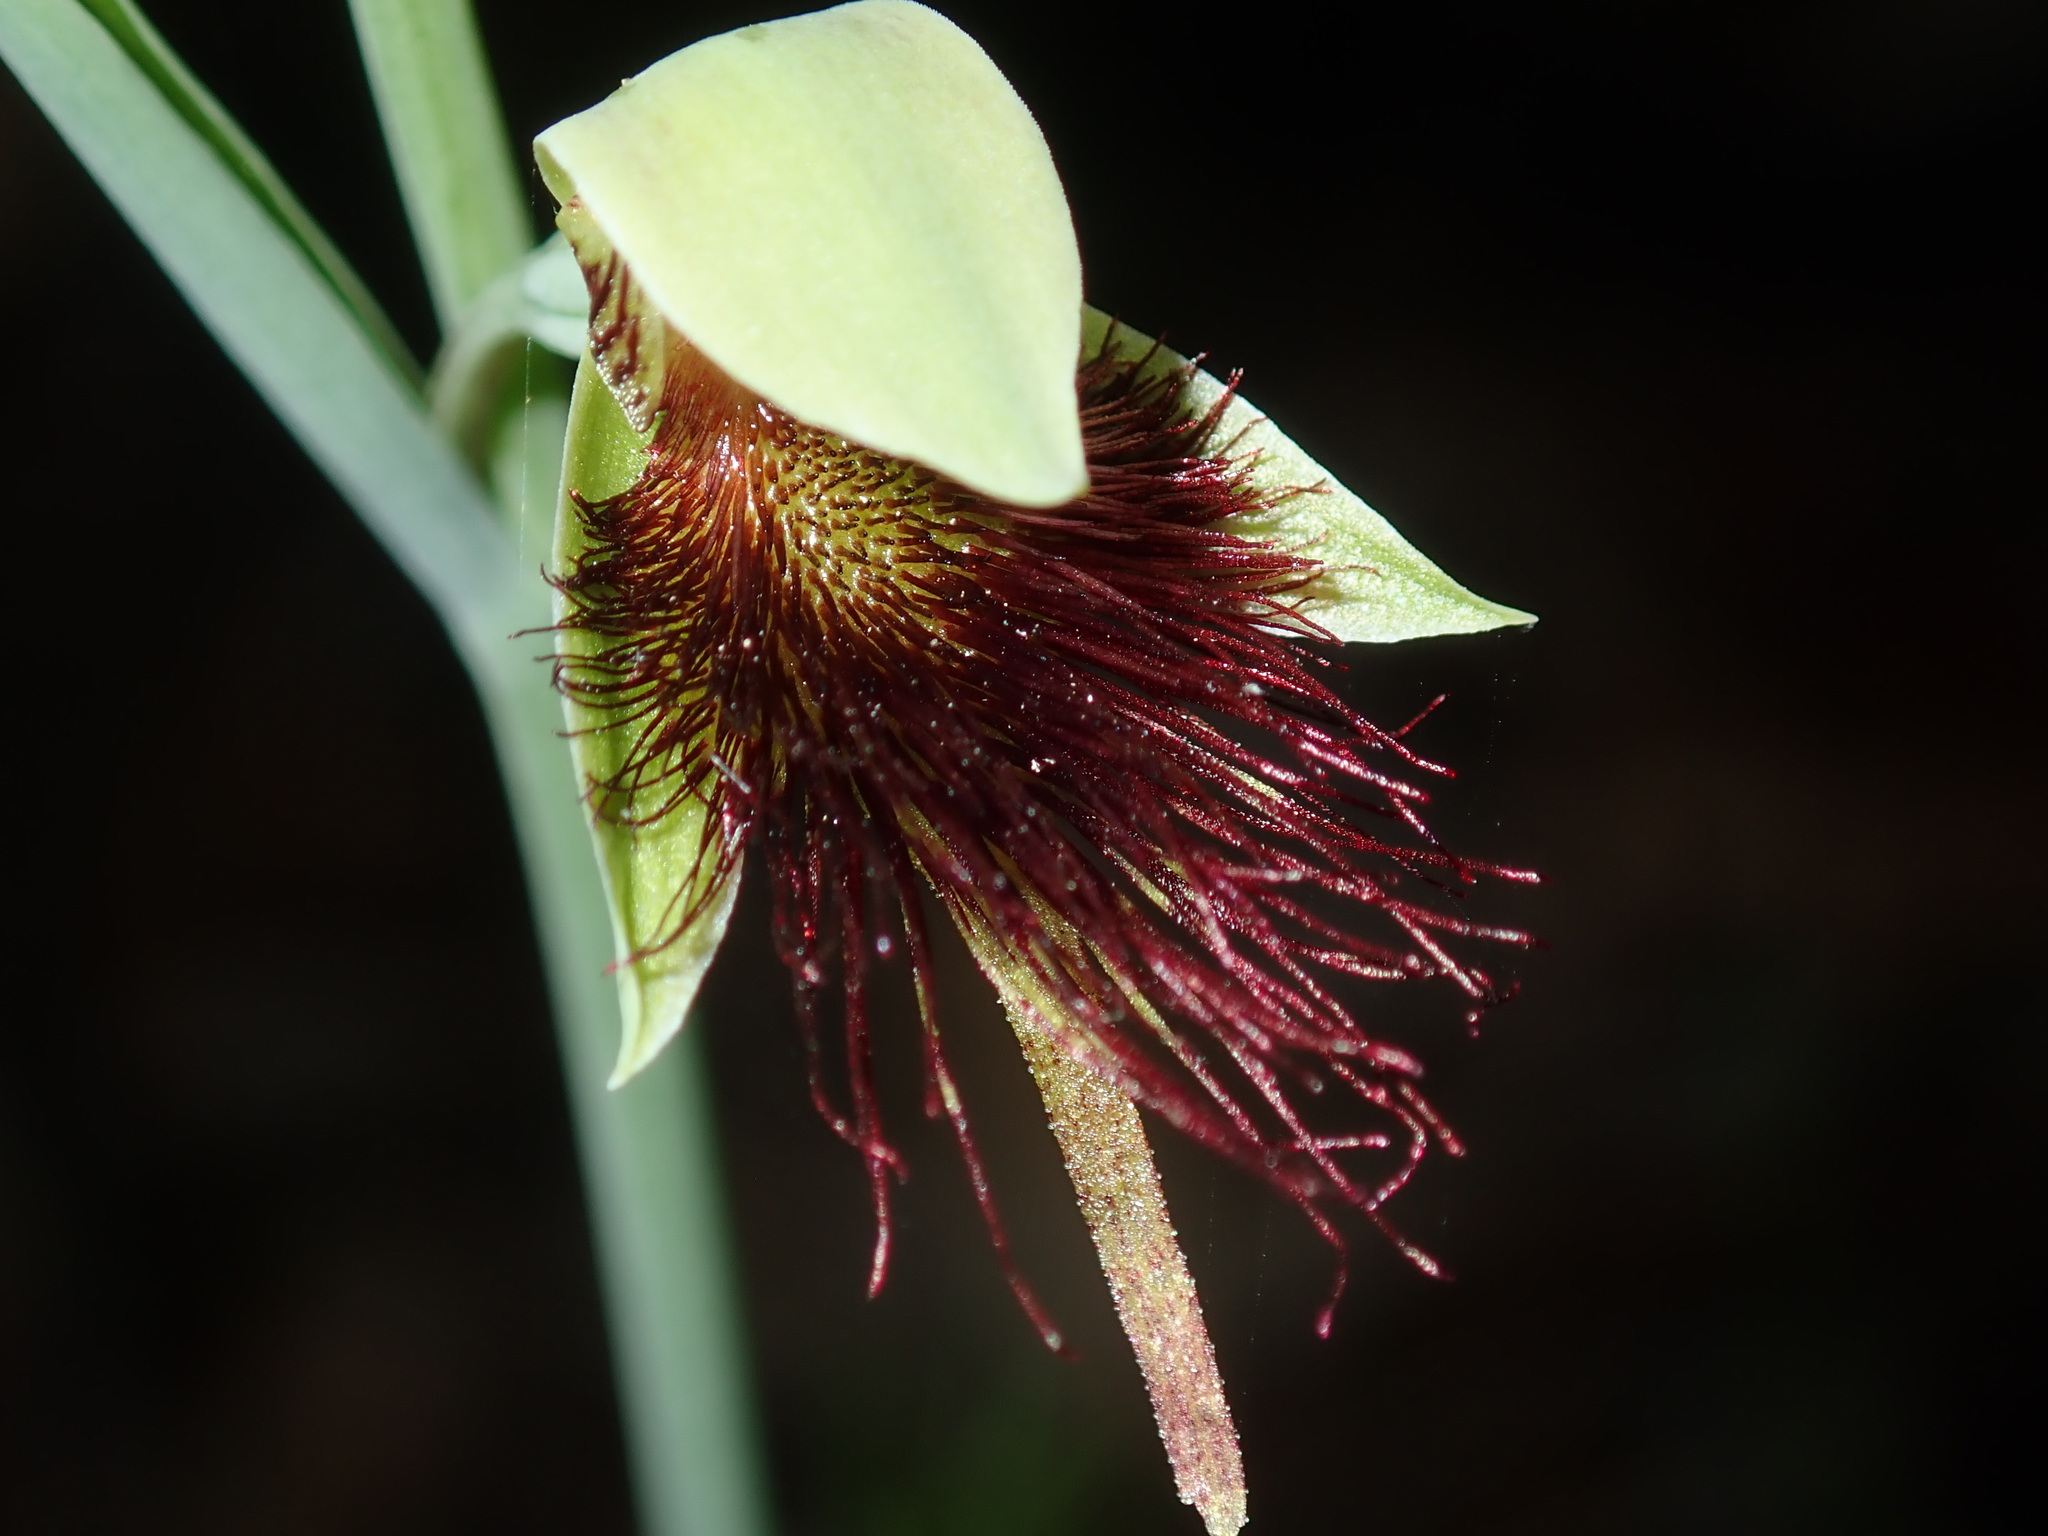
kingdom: Plantae
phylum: Tracheophyta
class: Liliopsida
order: Asparagales
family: Orchidaceae
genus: Calochilus
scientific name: Calochilus paludosus
